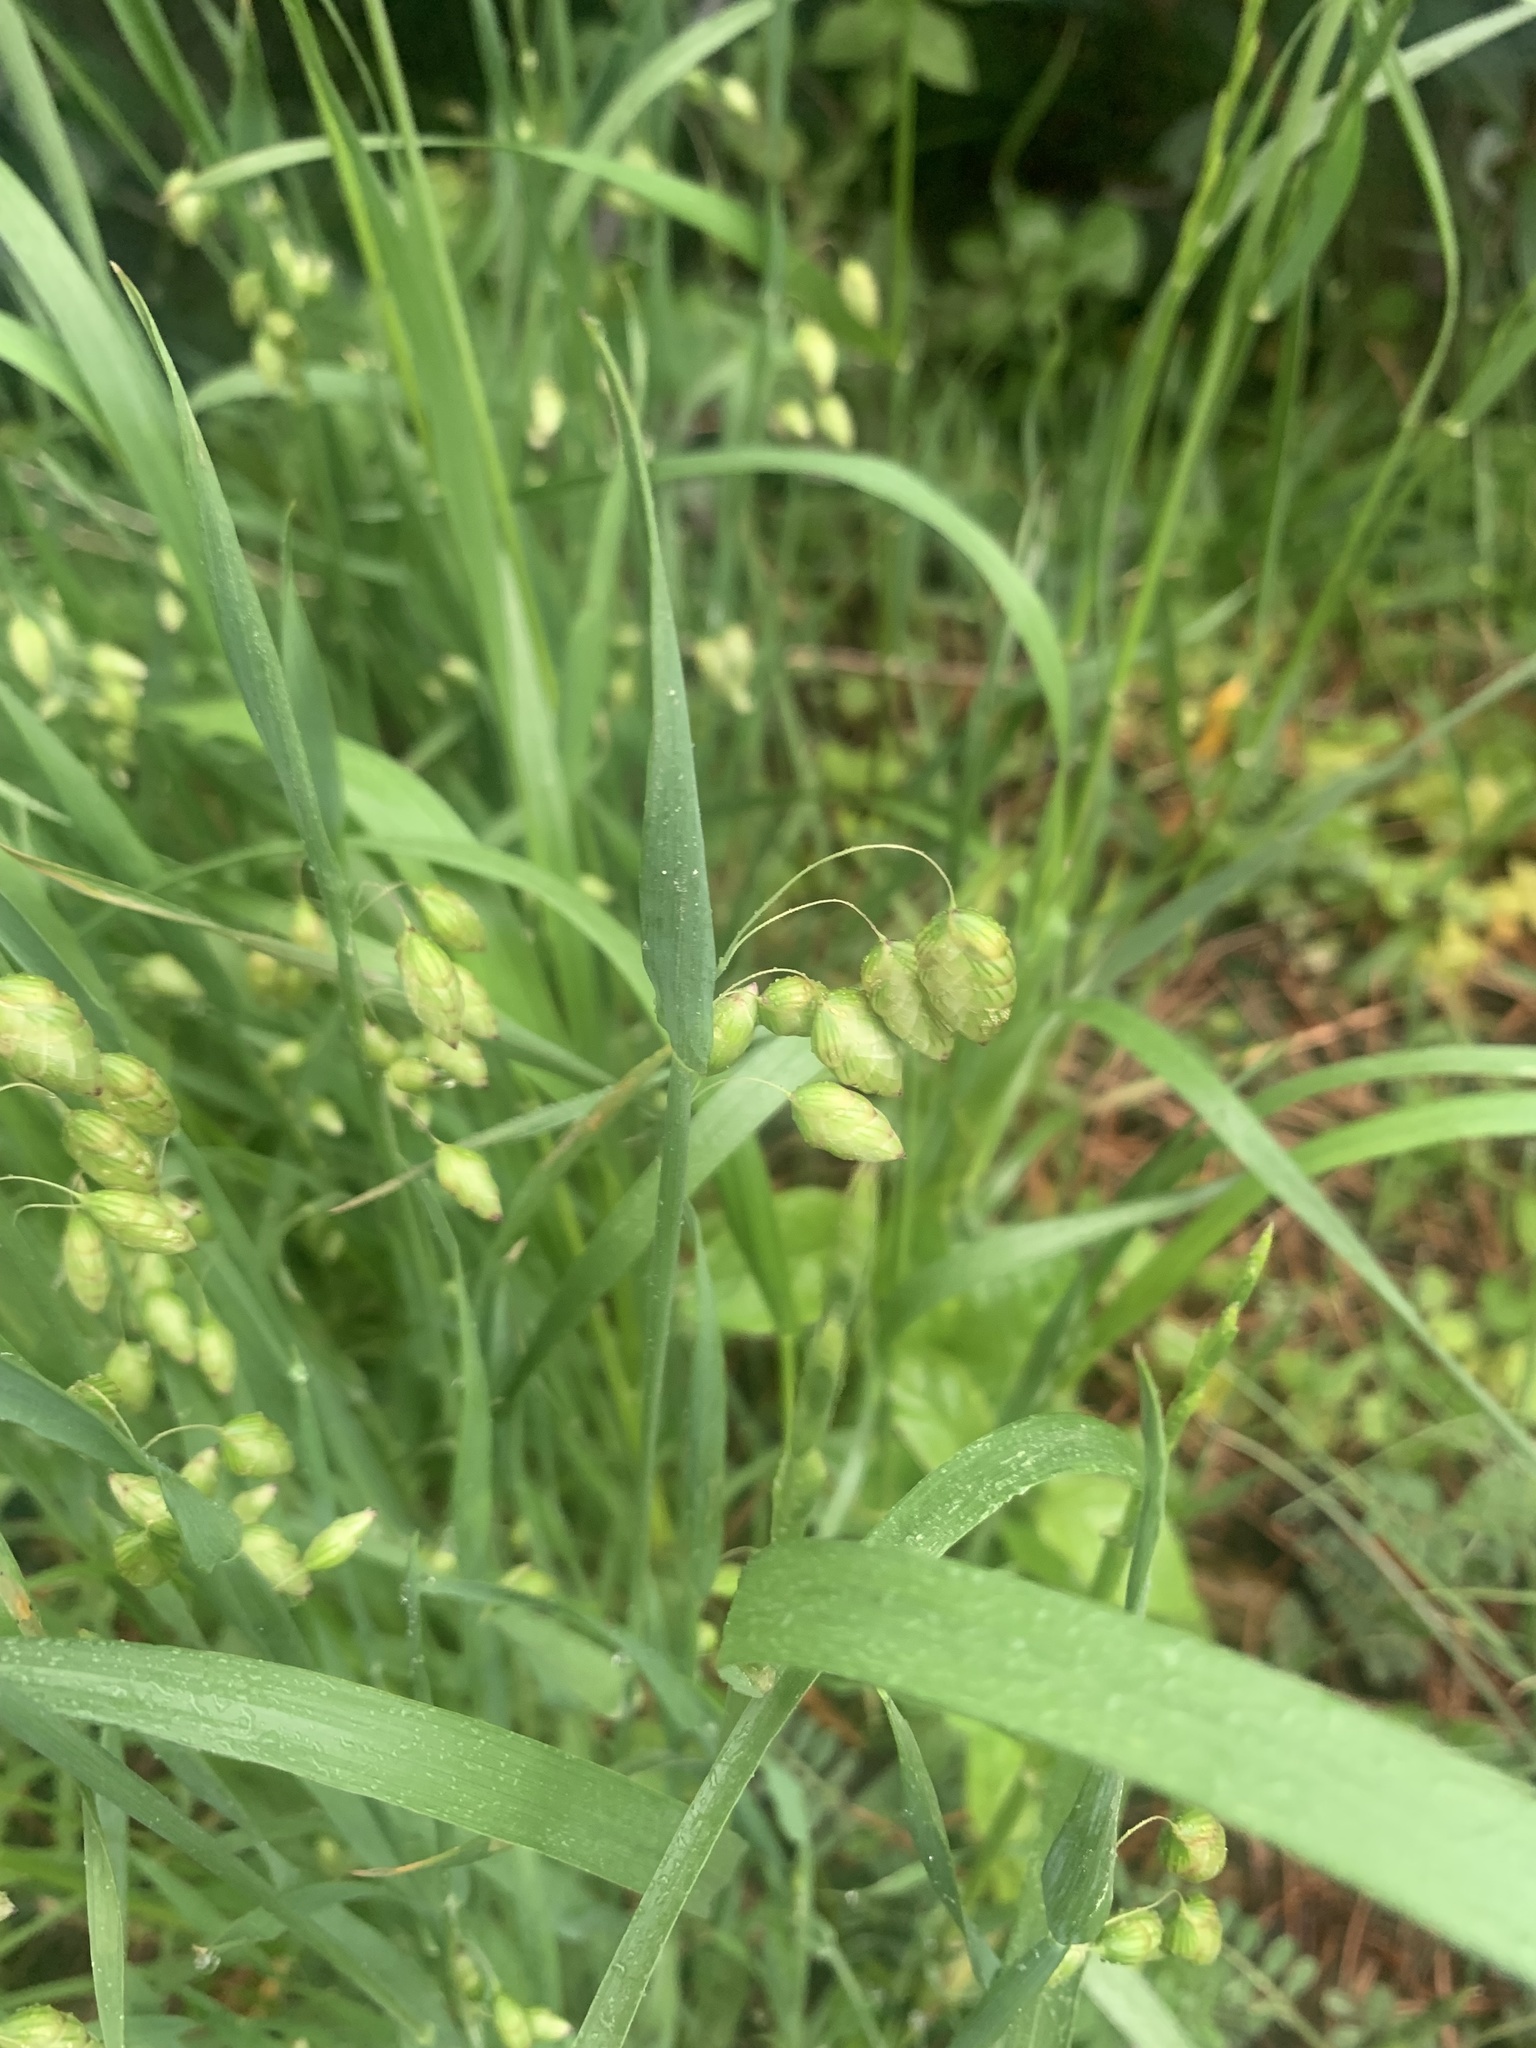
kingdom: Plantae
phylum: Tracheophyta
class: Liliopsida
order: Poales
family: Poaceae
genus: Briza
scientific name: Briza maxima
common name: Big quakinggrass
